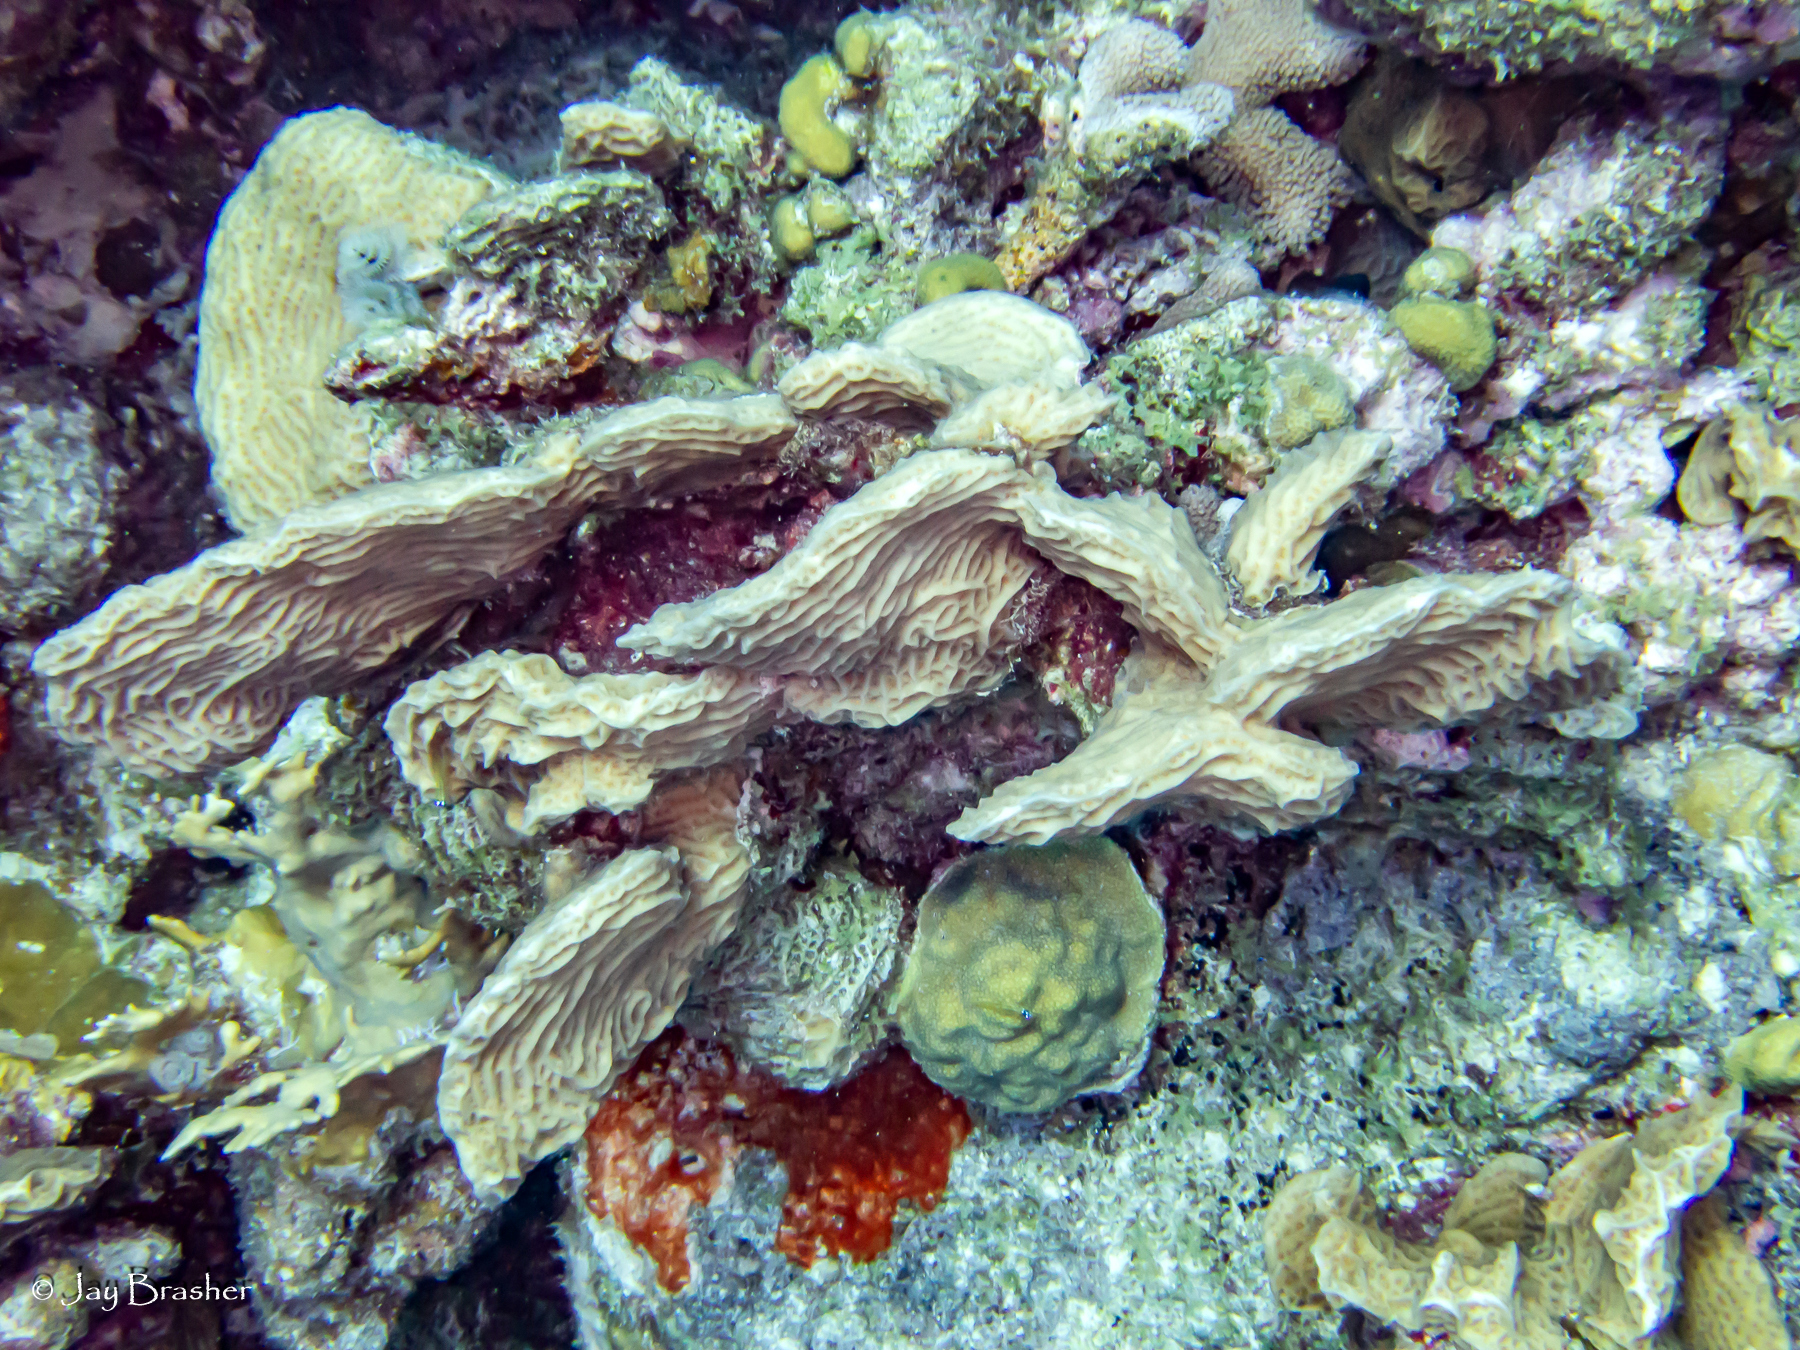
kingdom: Animalia
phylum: Cnidaria
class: Anthozoa
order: Scleractinia
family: Poritidae
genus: Porites
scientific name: Porites astreoides
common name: Mustard hill coral
